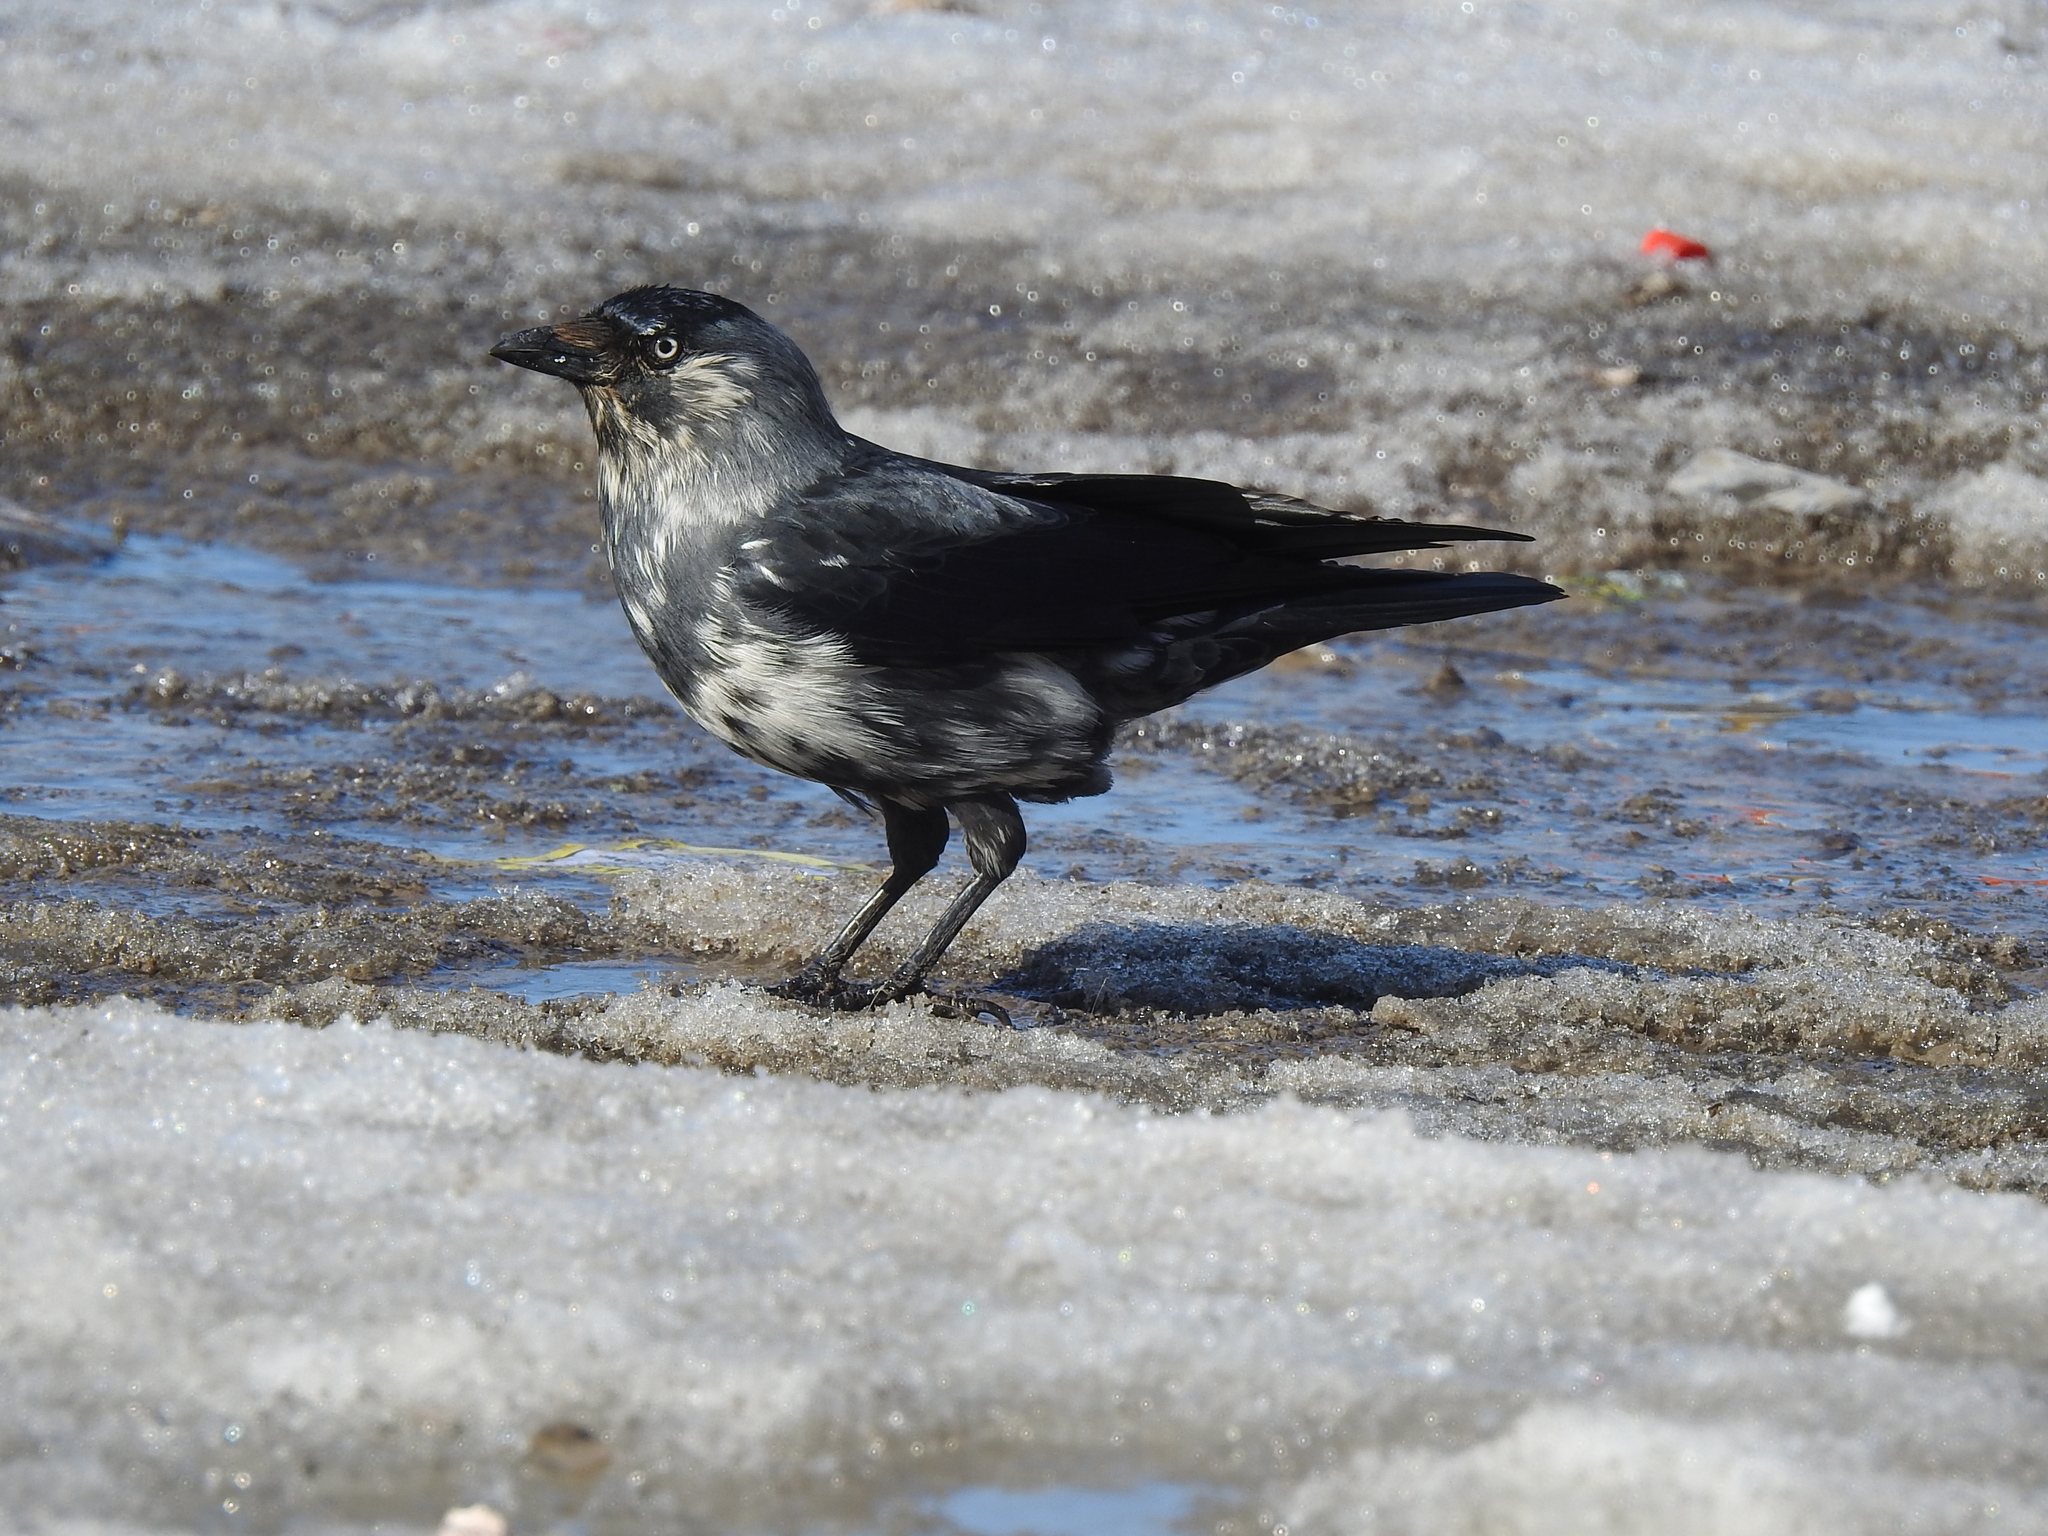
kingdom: Animalia
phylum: Chordata
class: Aves
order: Passeriformes
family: Corvidae
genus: Coloeus
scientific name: Coloeus monedula
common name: Western jackdaw
